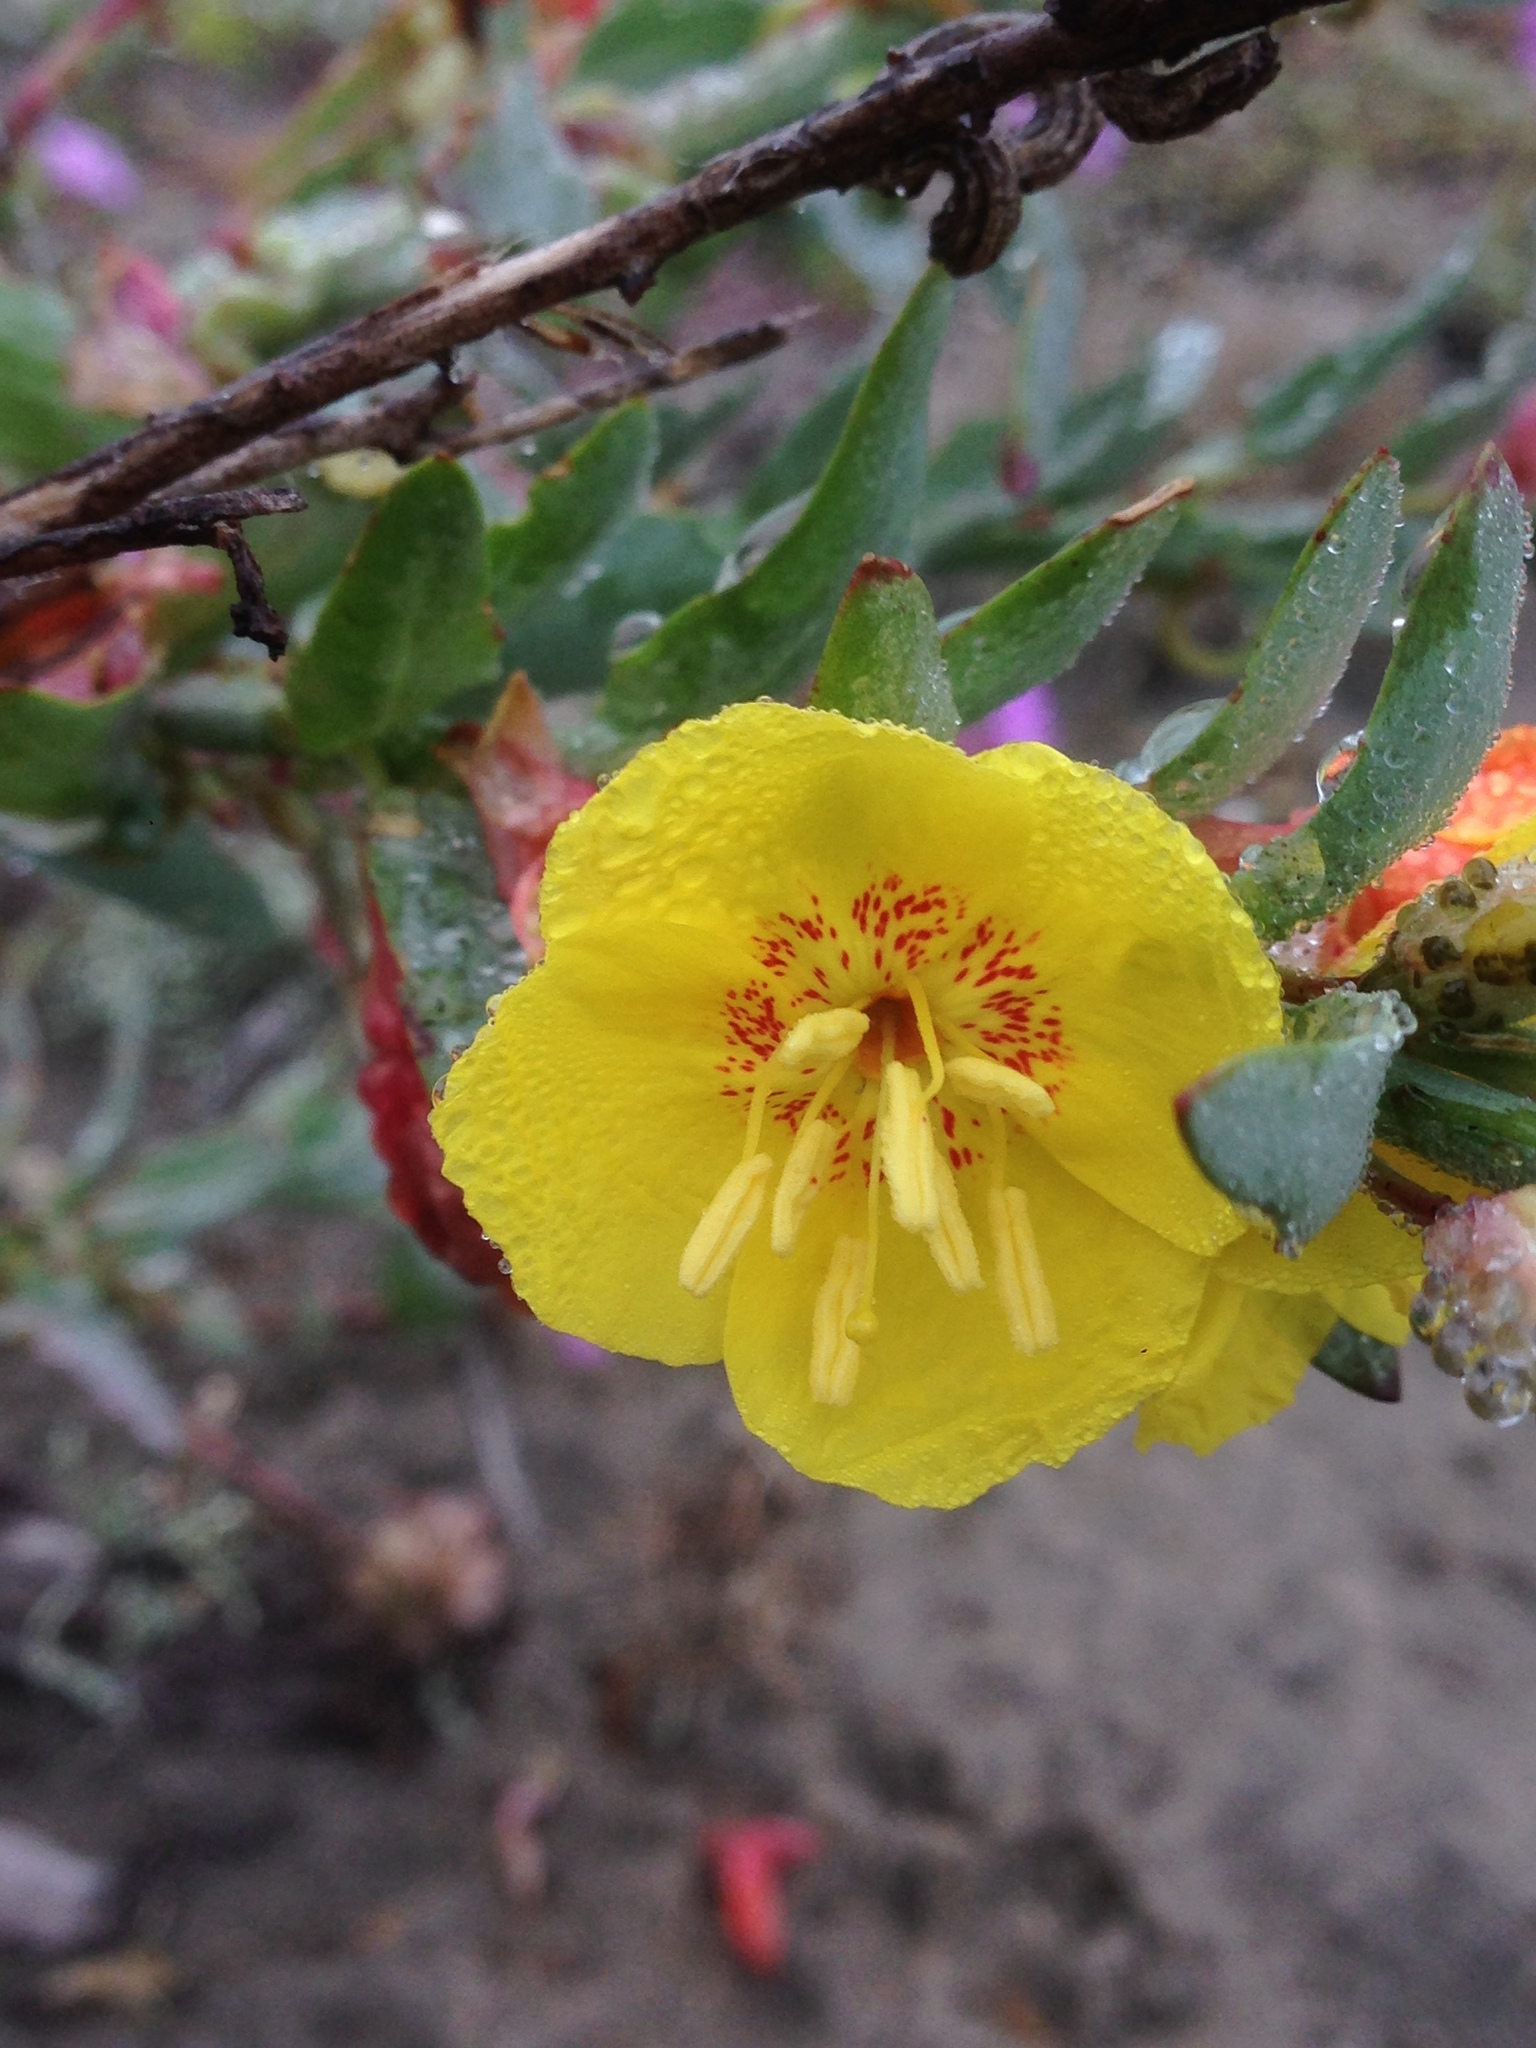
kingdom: Plantae
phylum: Tracheophyta
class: Magnoliopsida
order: Myrtales
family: Onagraceae
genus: Eulobus
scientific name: Eulobus crassifolius
